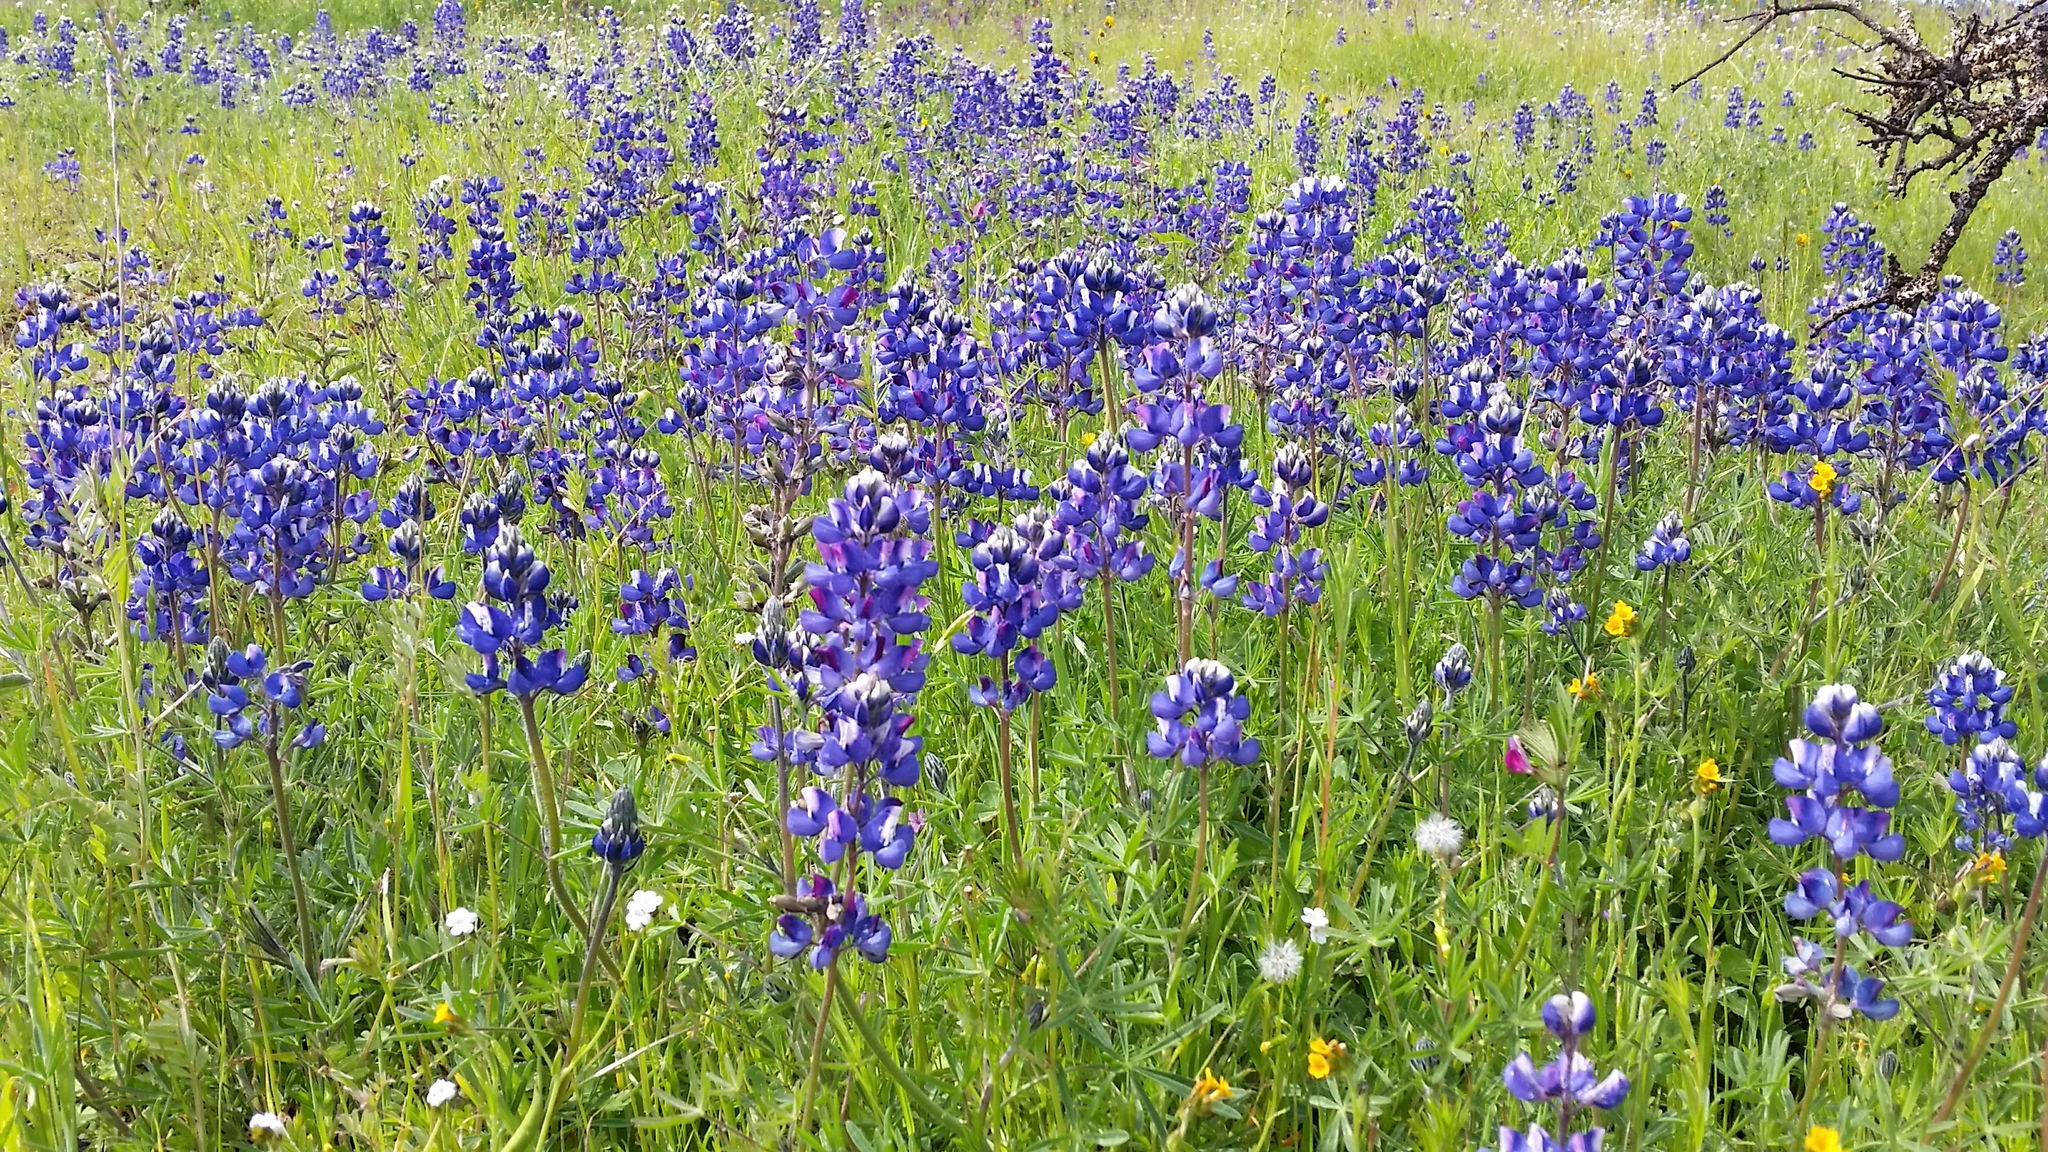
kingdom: Plantae
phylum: Tracheophyta
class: Magnoliopsida
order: Fabales
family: Fabaceae
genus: Lupinus
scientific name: Lupinus nanus
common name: Orean blue lupin
